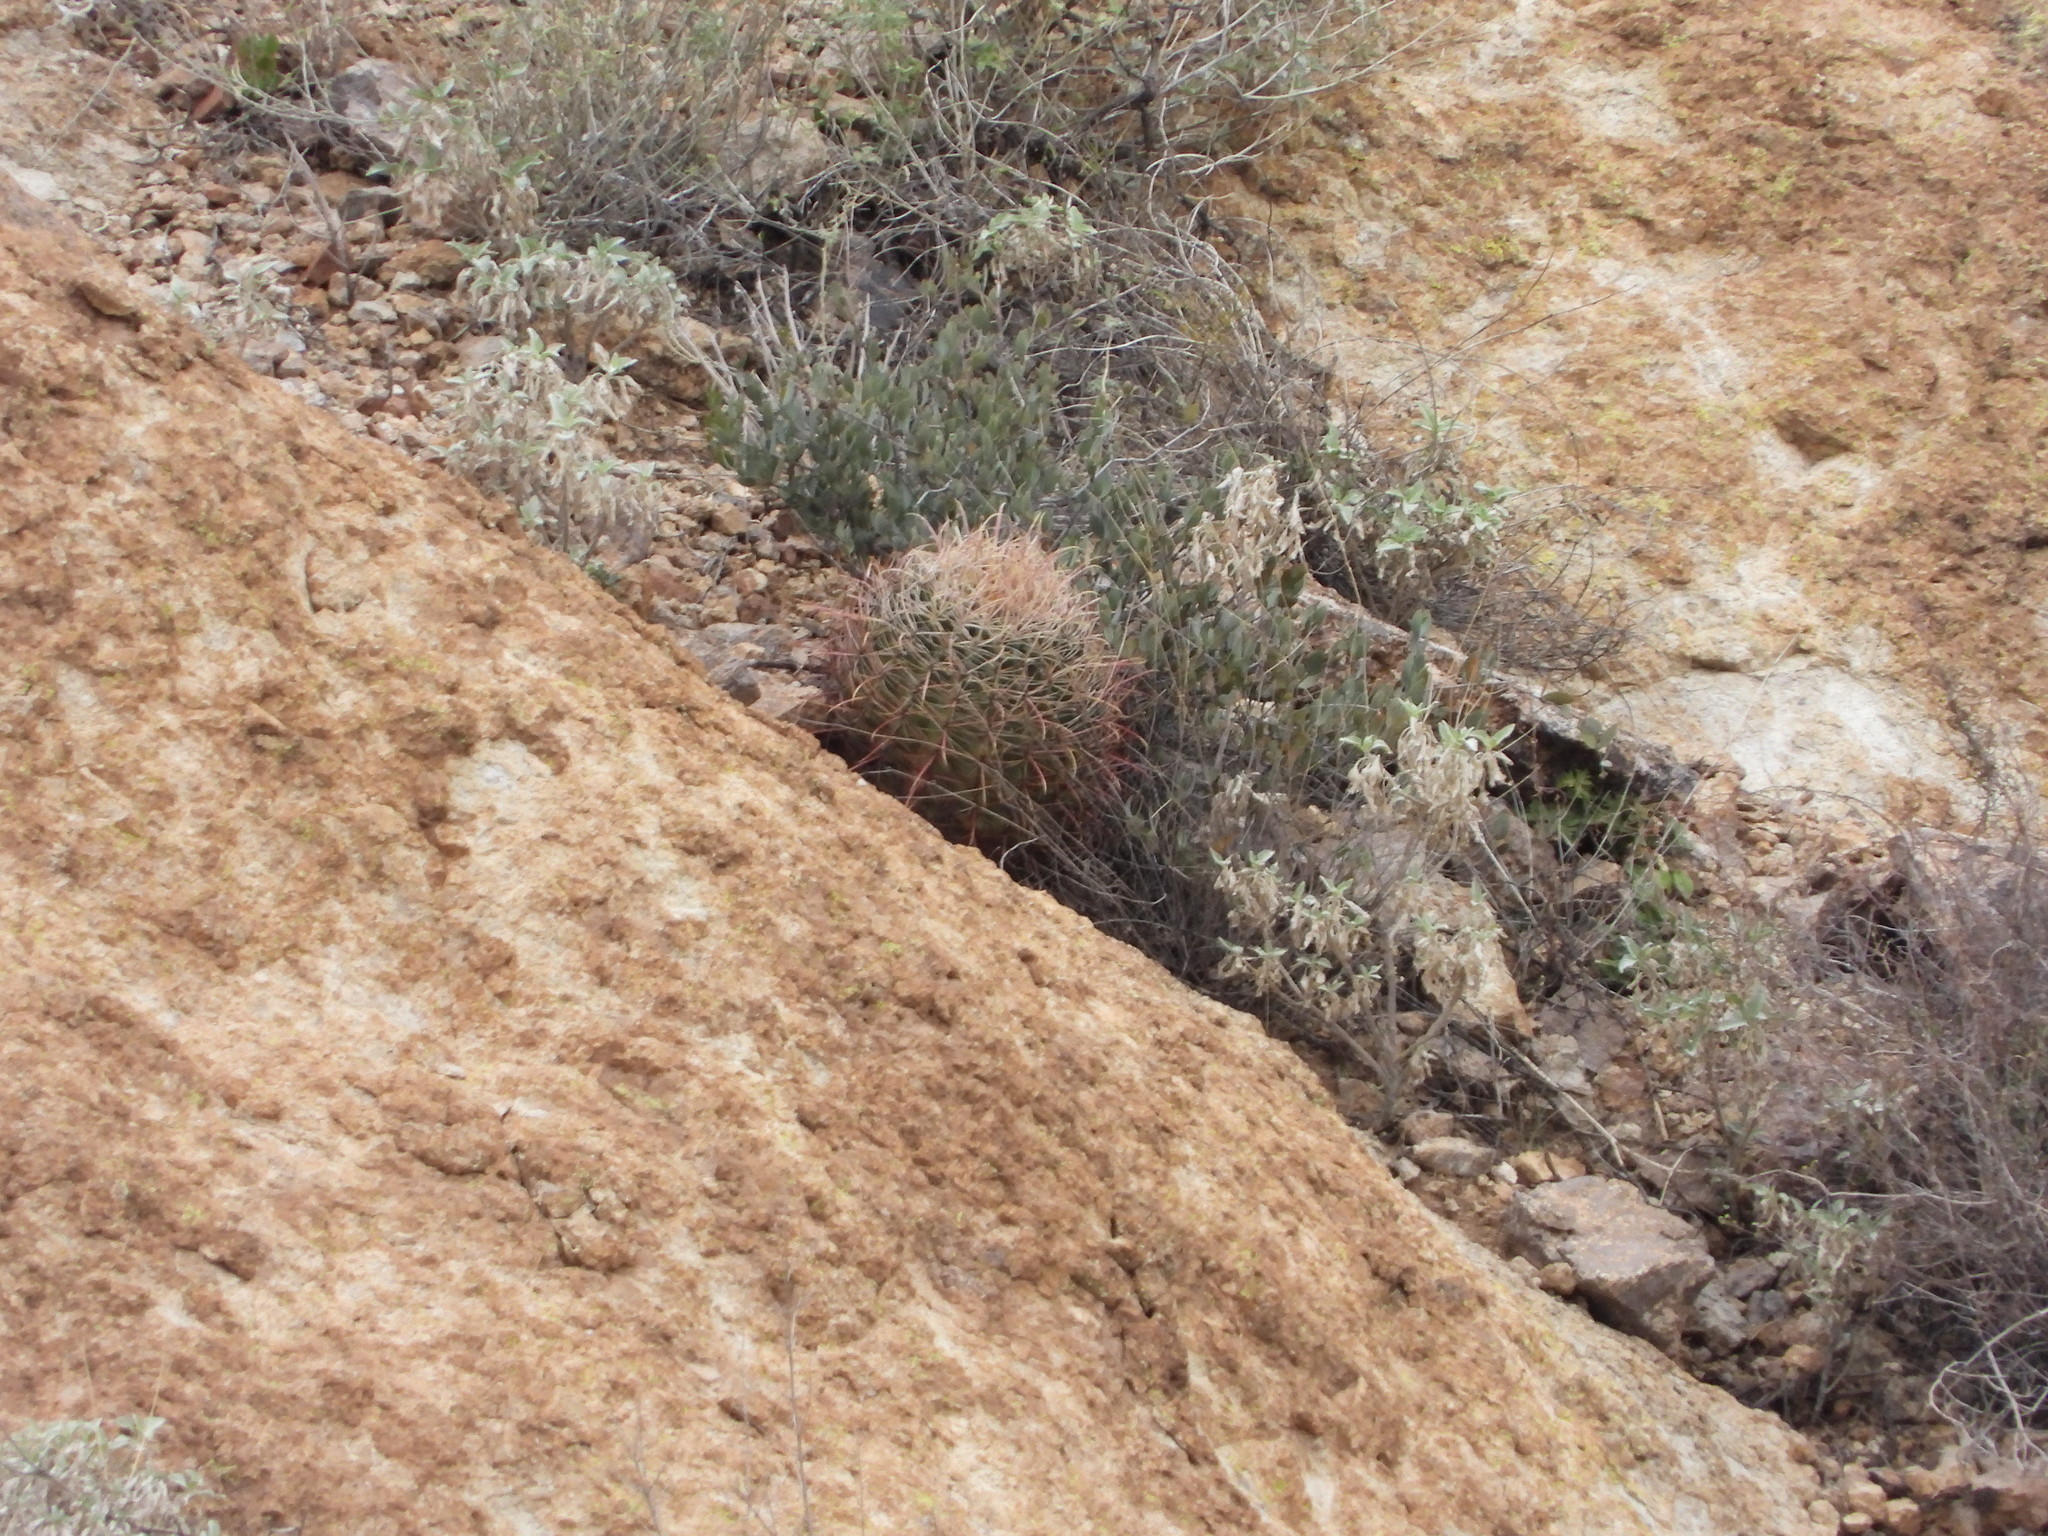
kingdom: Plantae
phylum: Tracheophyta
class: Magnoliopsida
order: Caryophyllales
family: Cactaceae
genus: Ferocactus
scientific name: Ferocactus cylindraceus
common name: California barrel cactus
